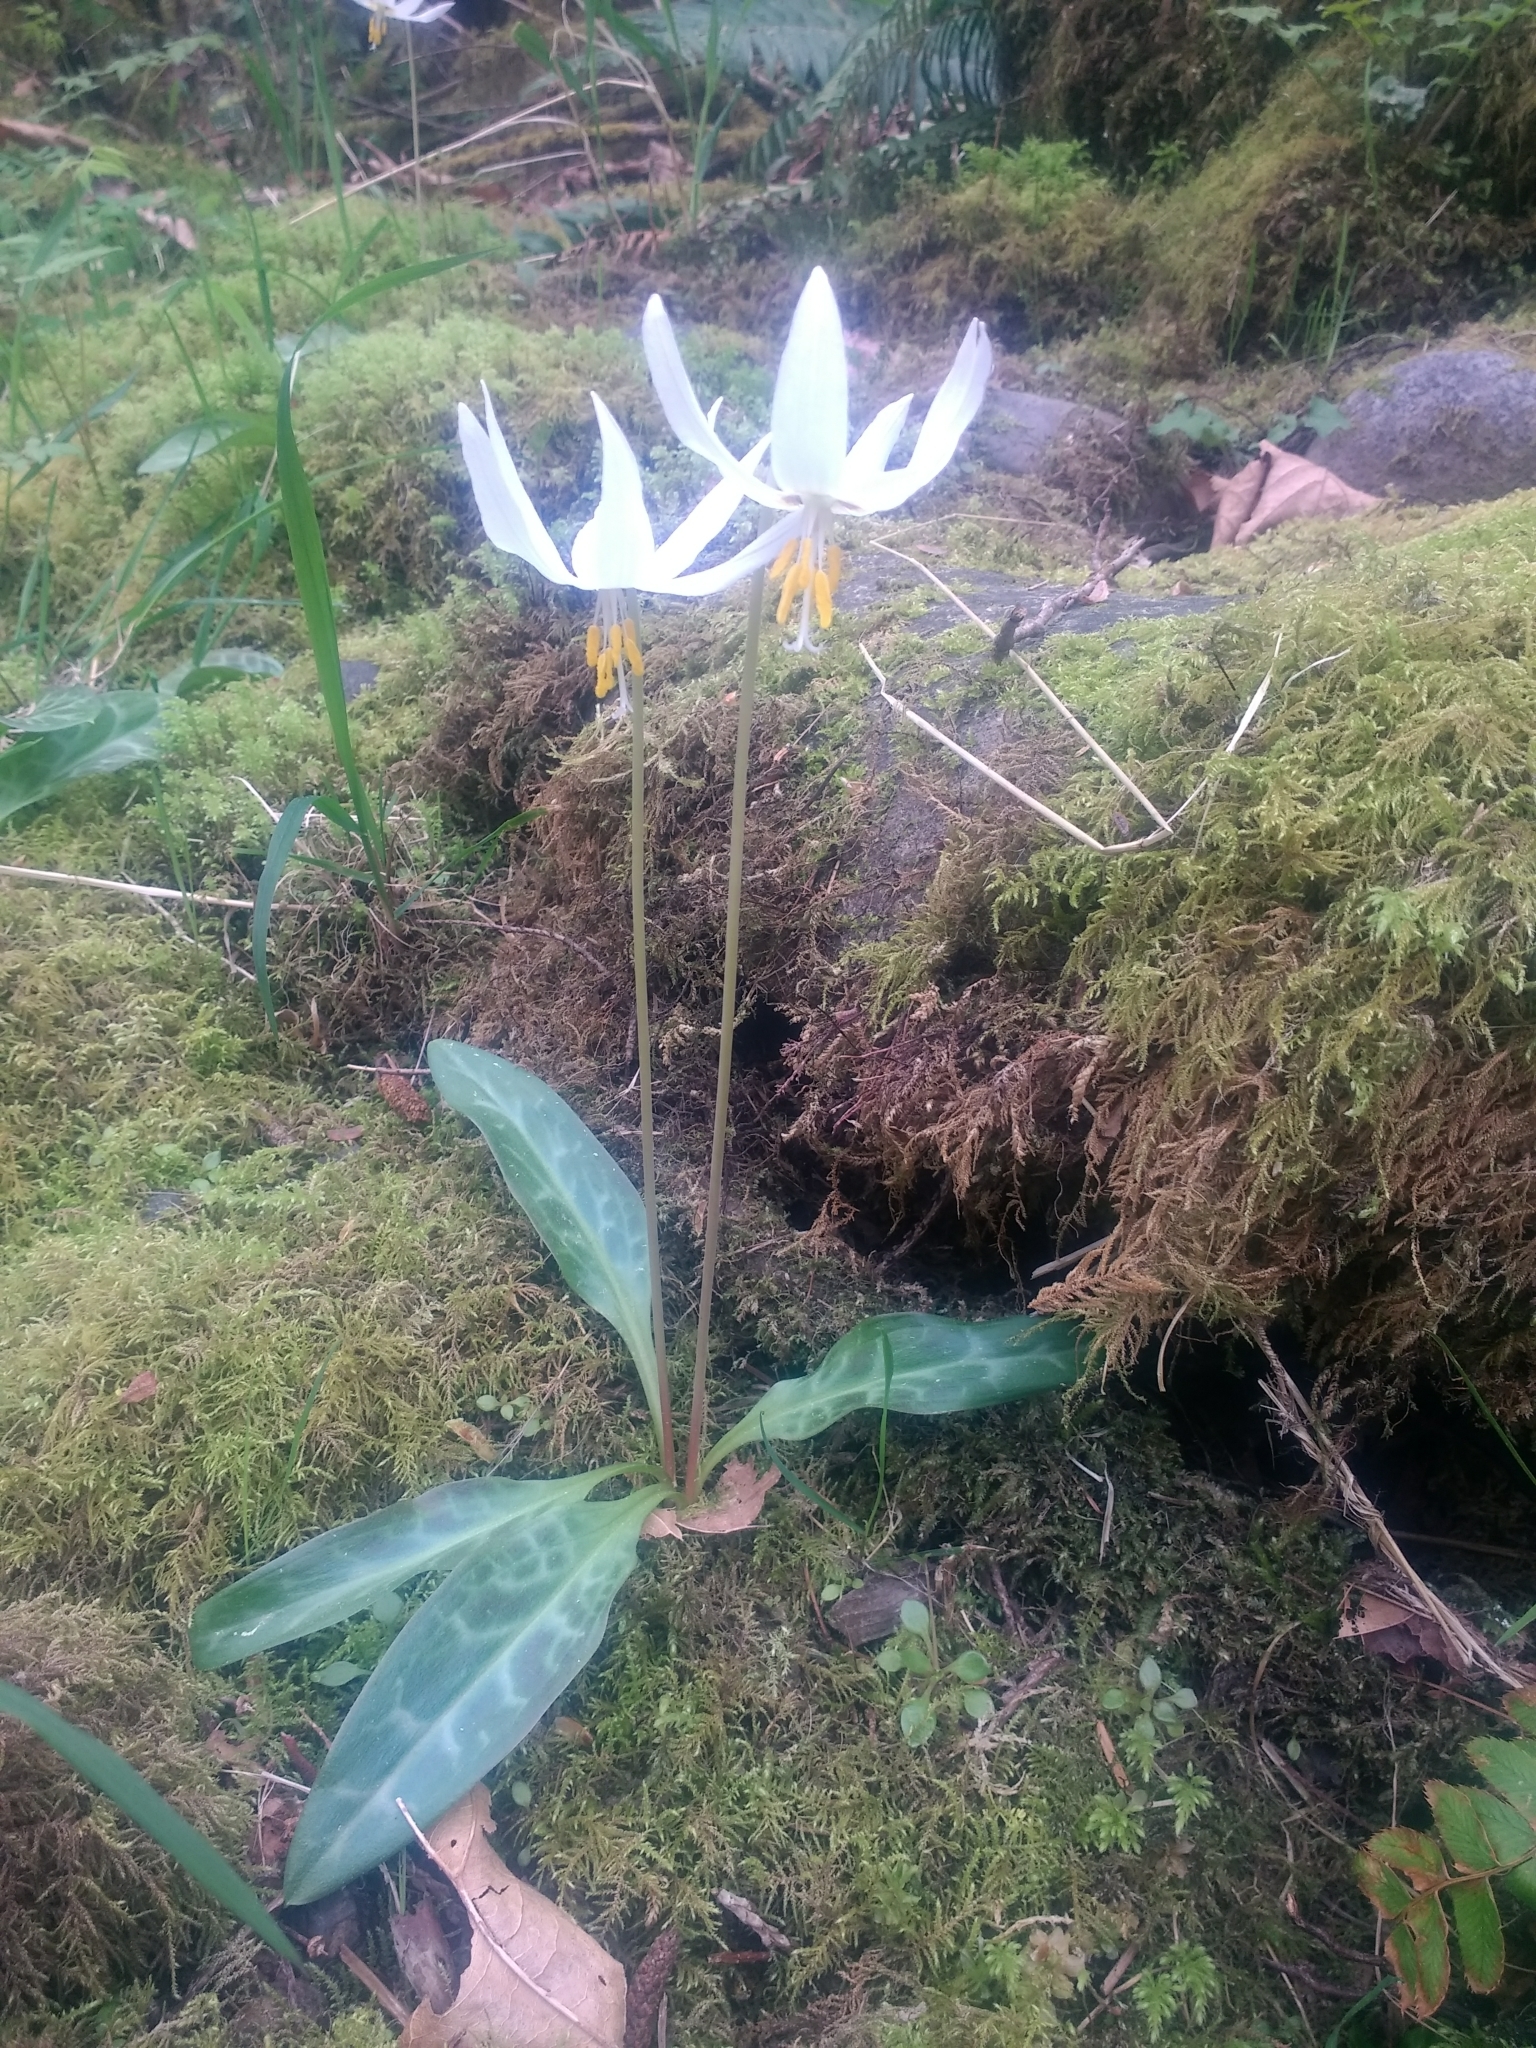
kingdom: Plantae
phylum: Tracheophyta
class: Liliopsida
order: Liliales
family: Liliaceae
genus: Erythronium
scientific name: Erythronium oregonum
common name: Giant adder's-tongue
